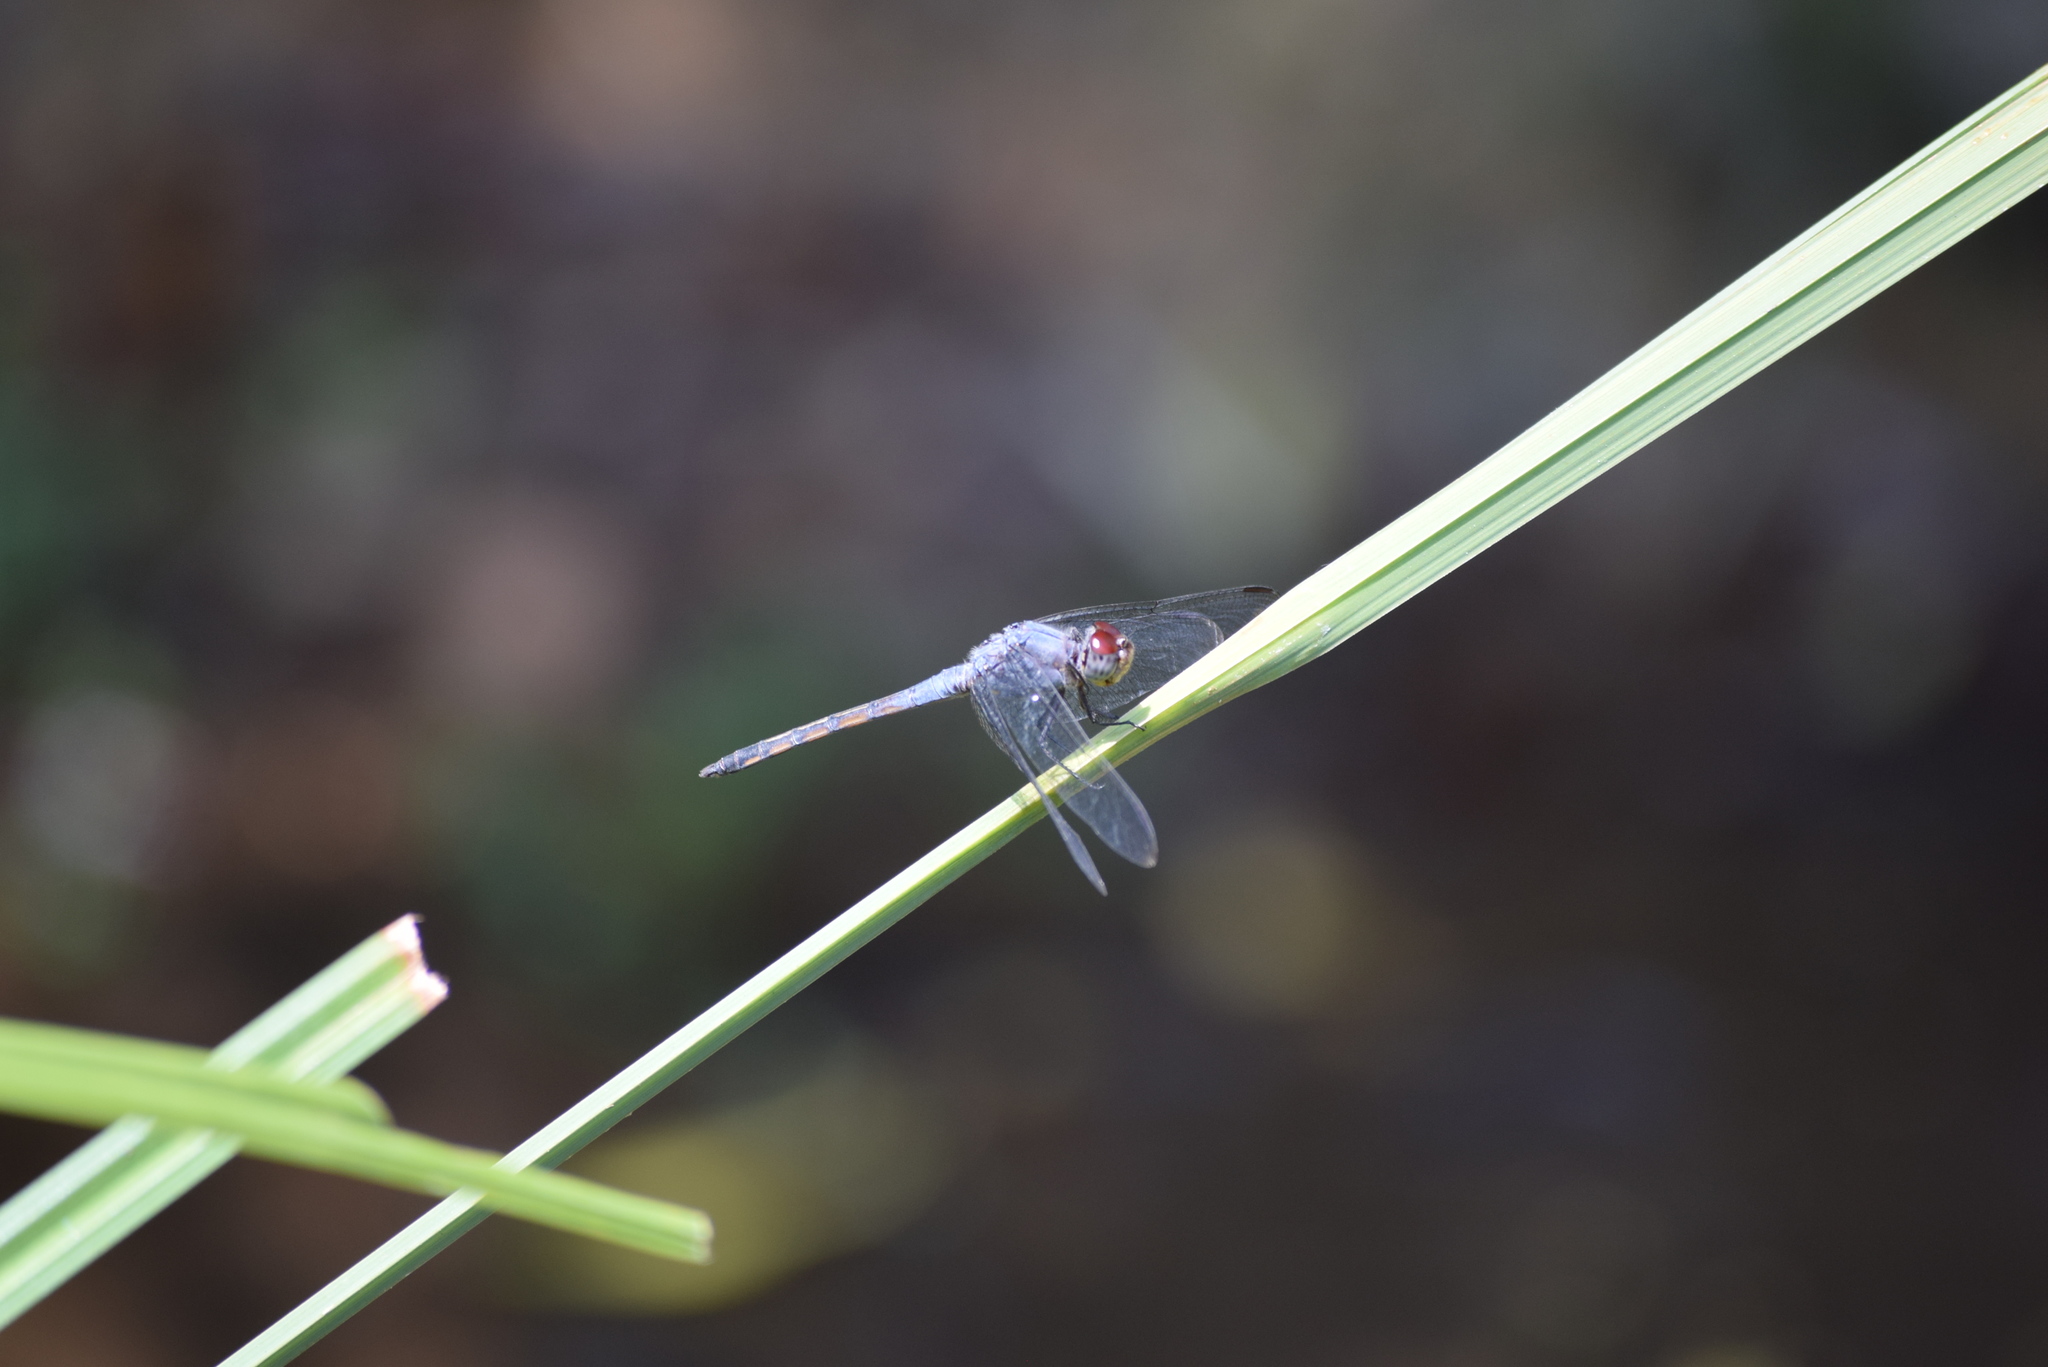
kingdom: Animalia
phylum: Arthropoda
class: Insecta
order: Odonata
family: Libellulidae
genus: Potamarcha
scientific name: Potamarcha congener
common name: Blue chaser
